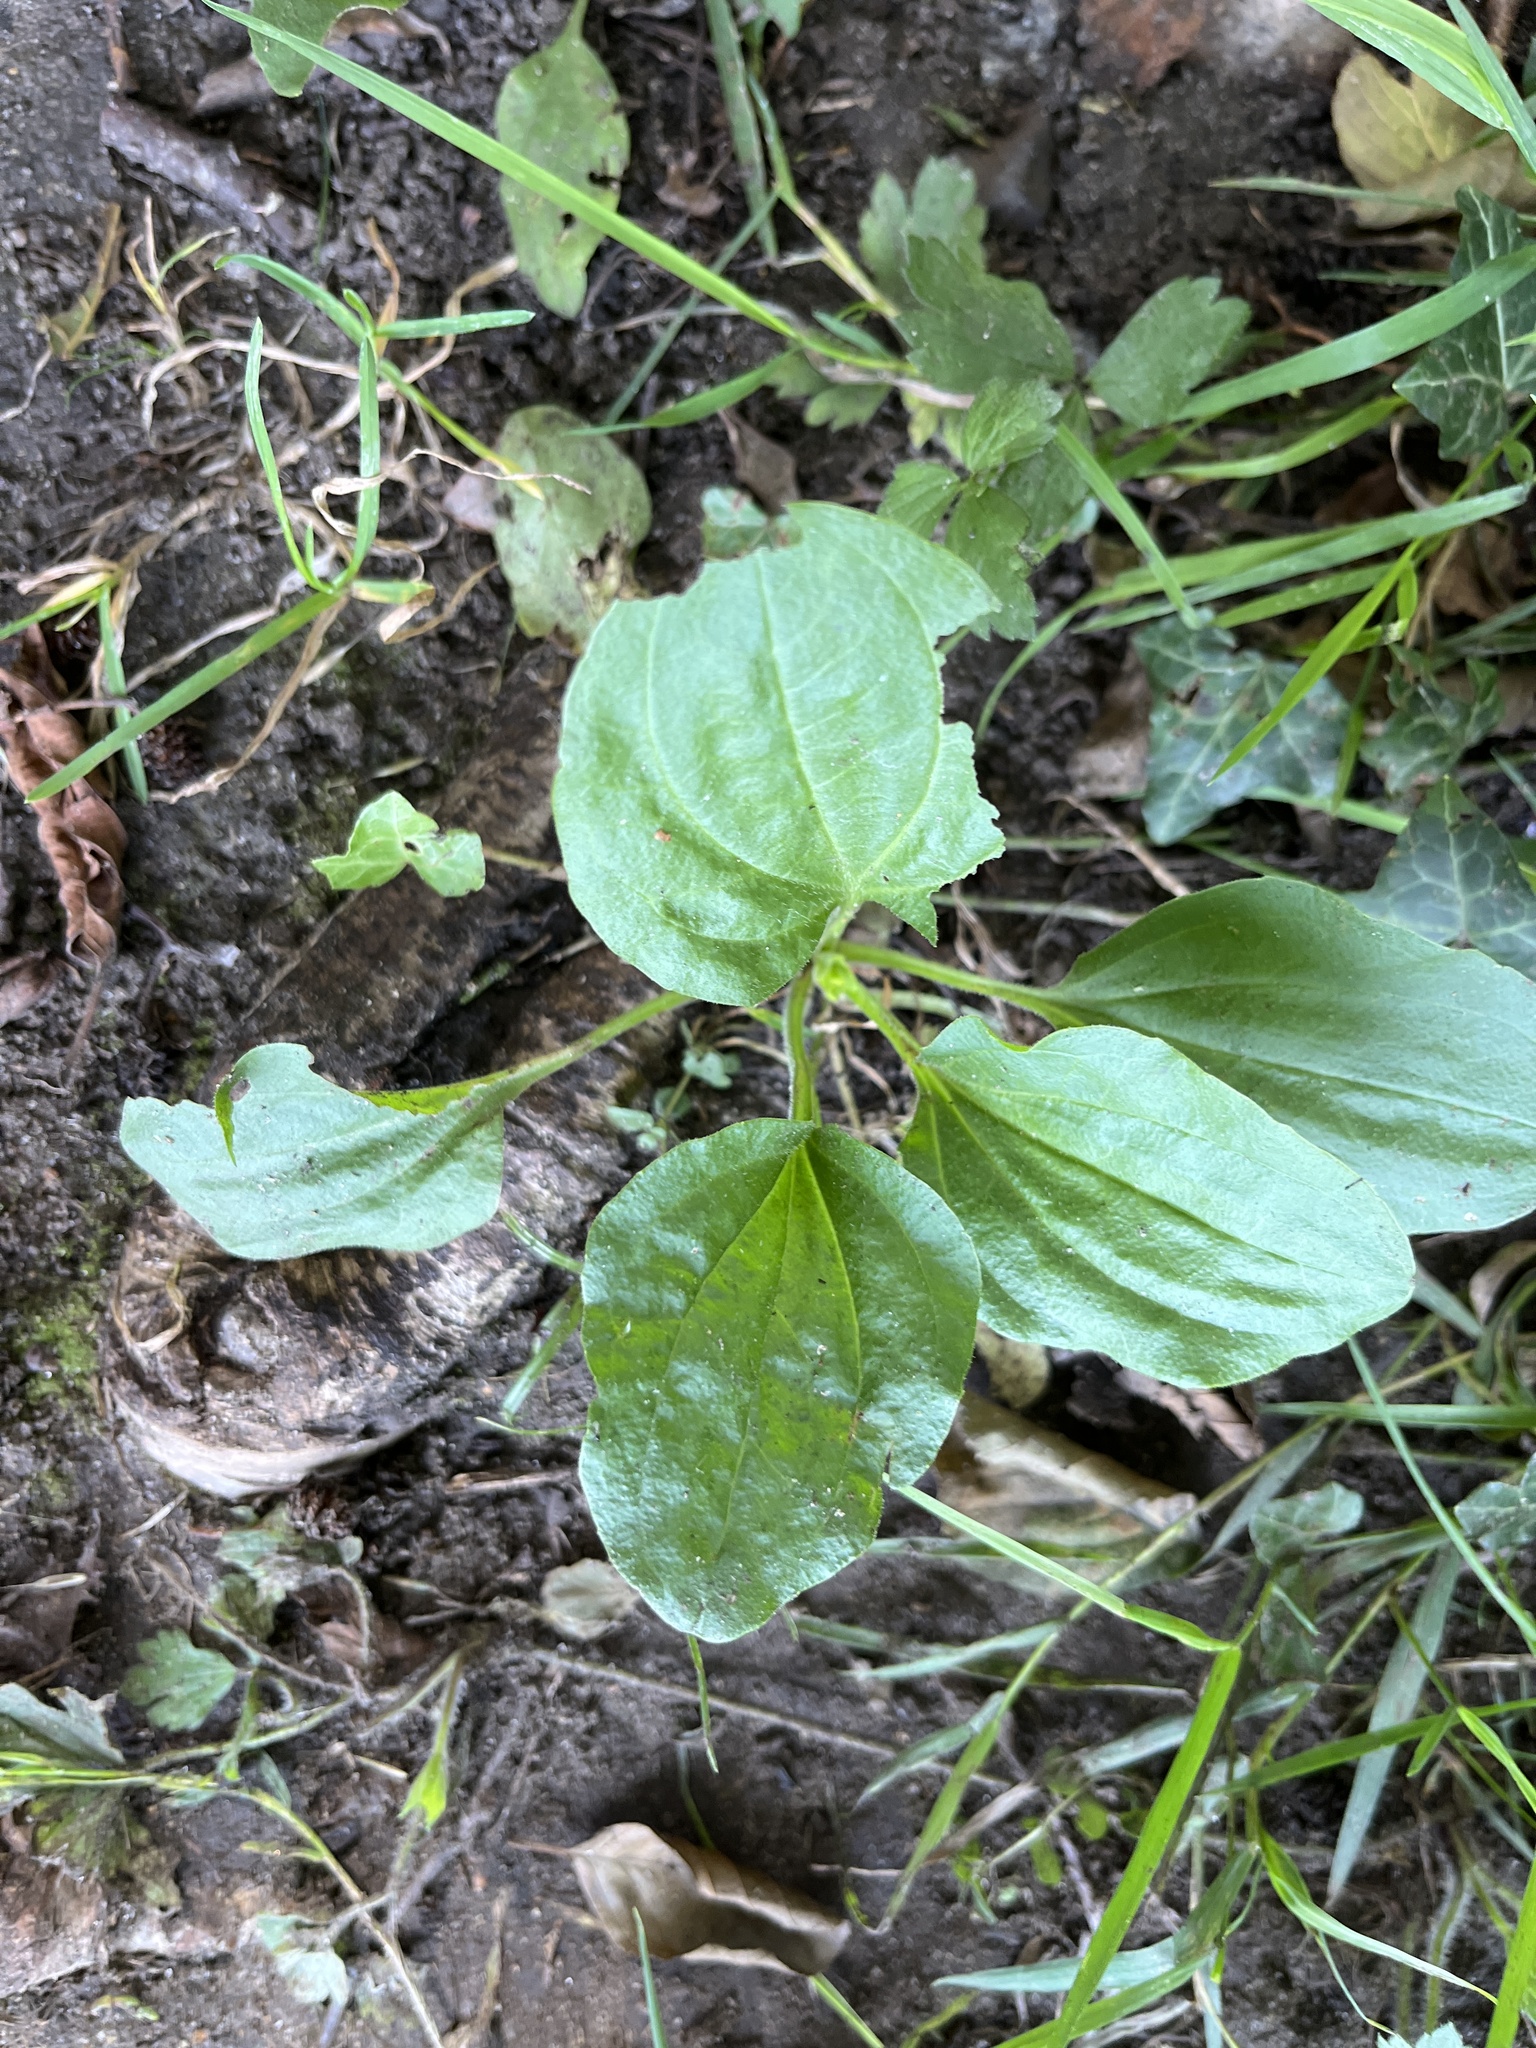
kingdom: Plantae
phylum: Tracheophyta
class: Magnoliopsida
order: Lamiales
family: Plantaginaceae
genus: Plantago
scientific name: Plantago major
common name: Common plantain
